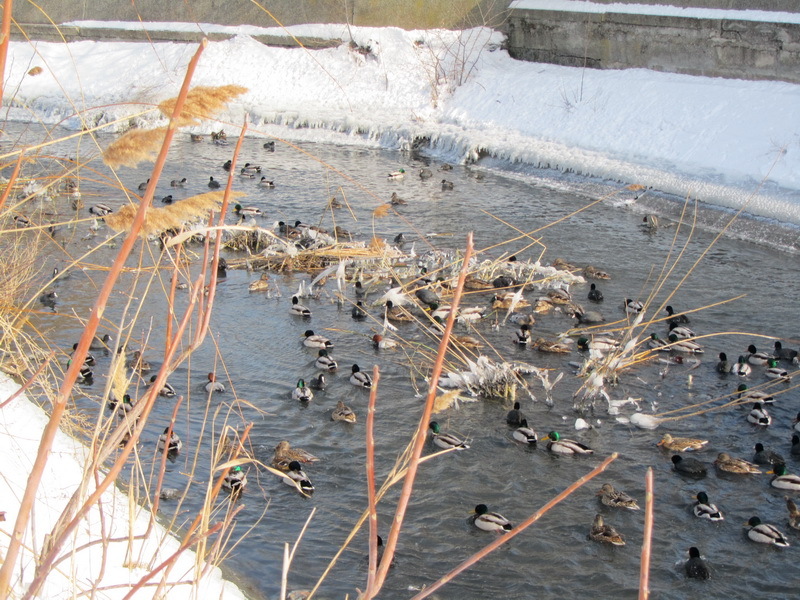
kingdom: Animalia
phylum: Chordata
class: Aves
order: Anseriformes
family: Anatidae
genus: Anas
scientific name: Anas platyrhynchos
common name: Mallard
